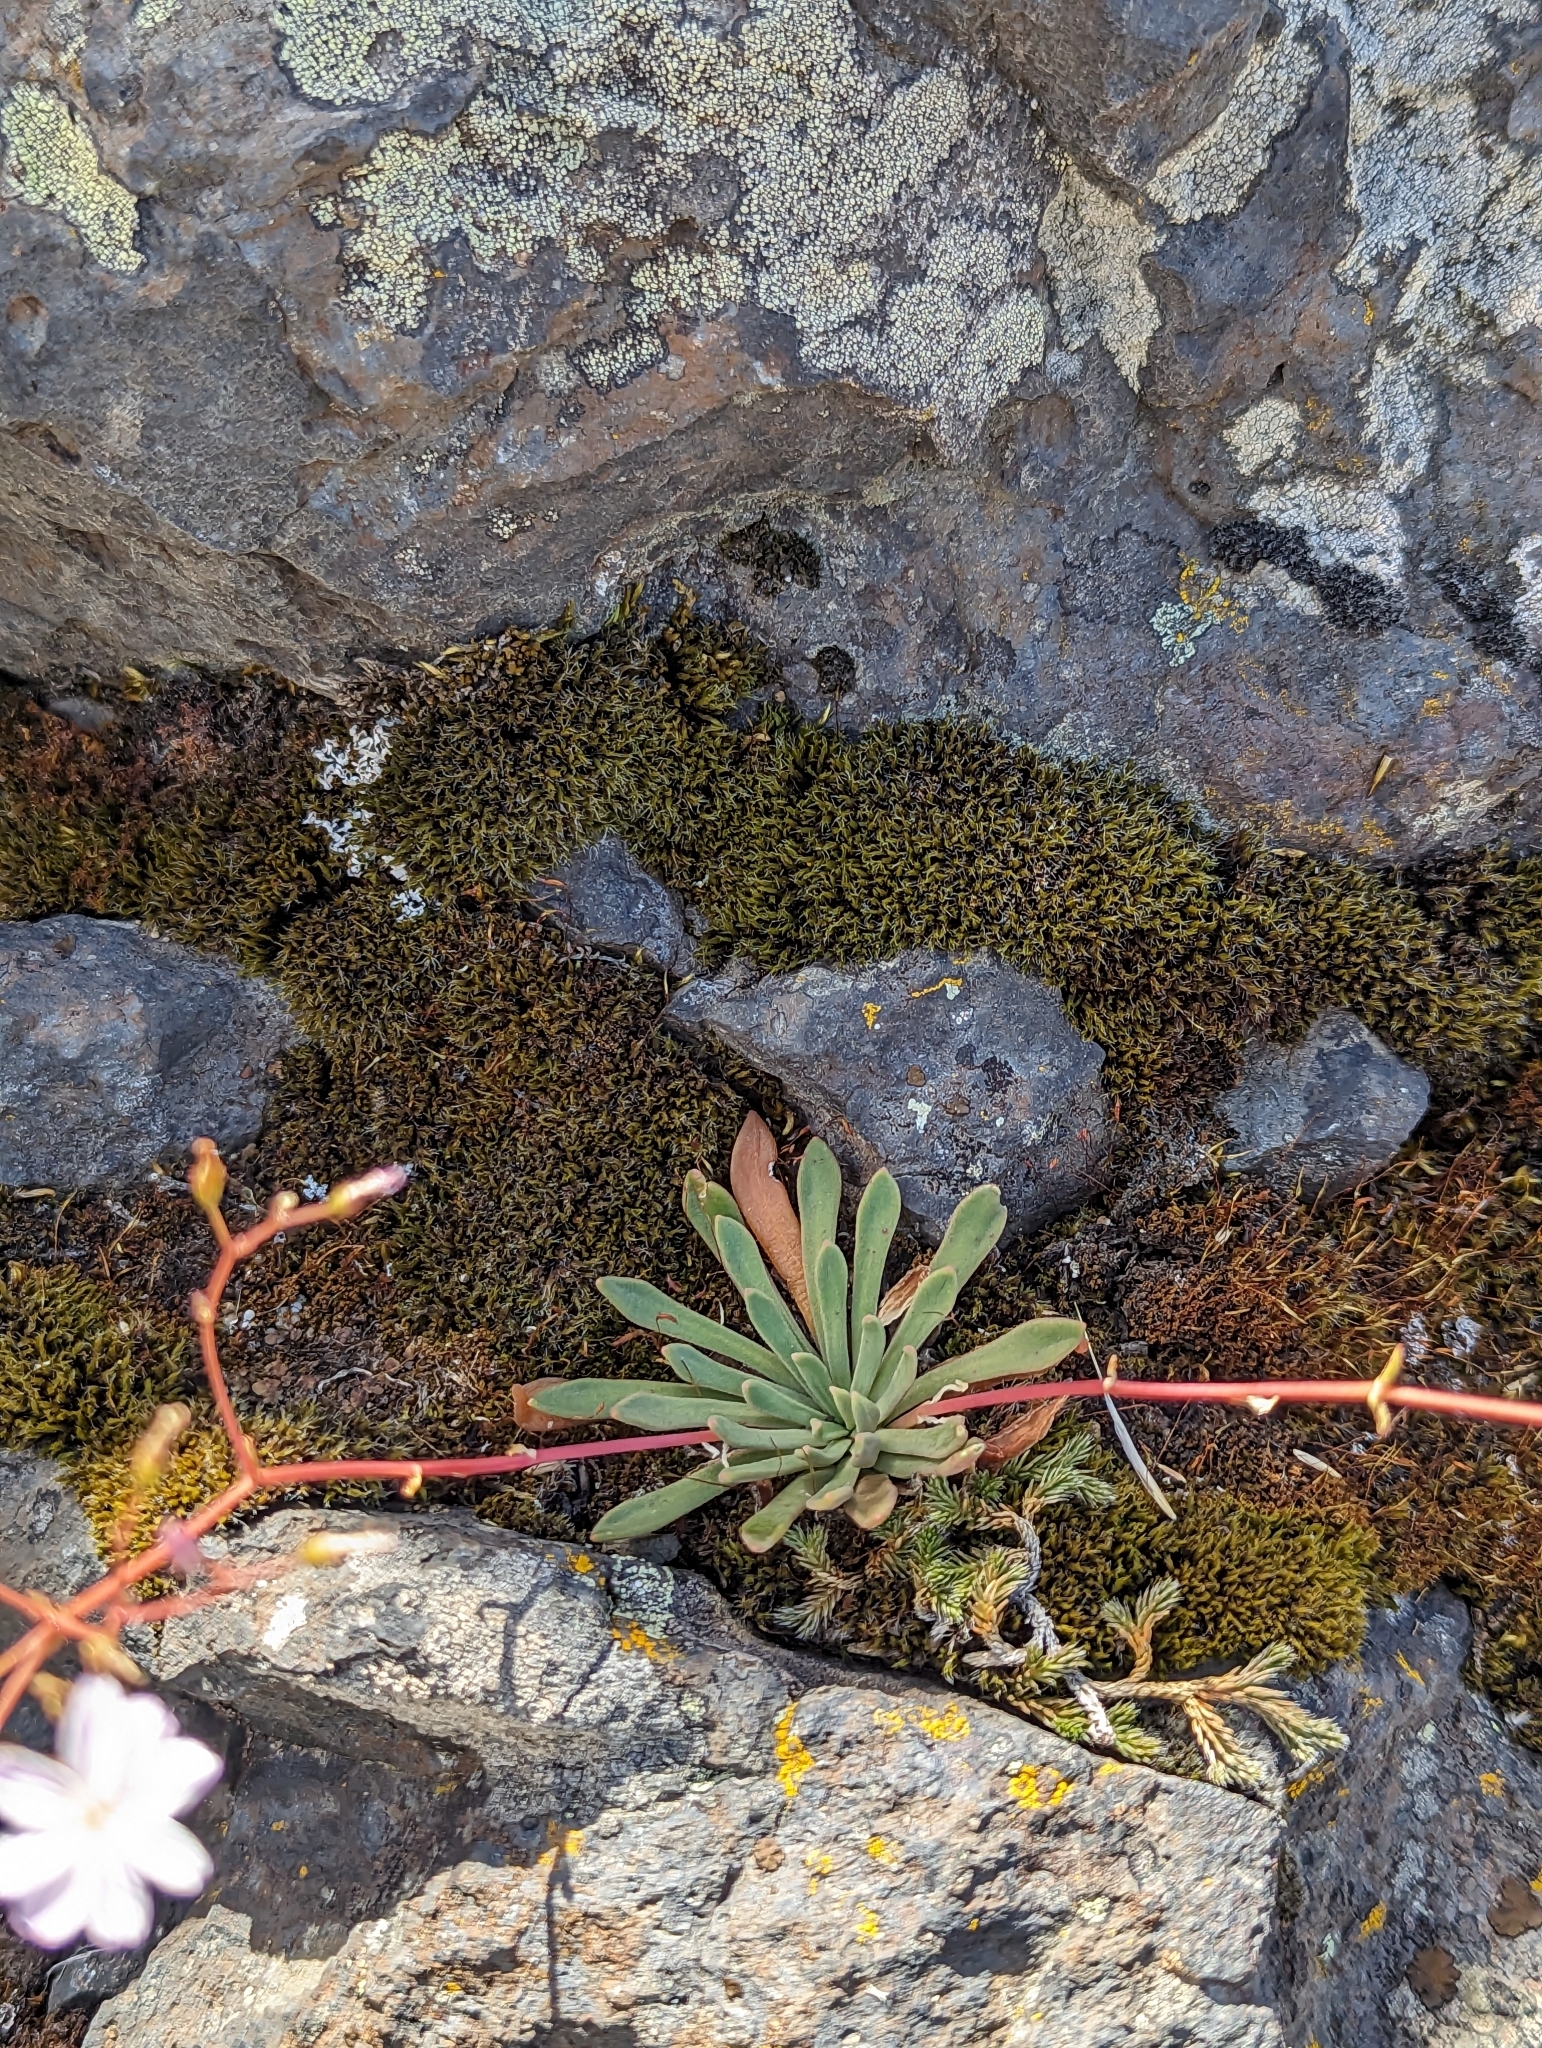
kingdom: Plantae
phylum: Tracheophyta
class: Magnoliopsida
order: Caryophyllales
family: Montiaceae
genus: Lewisia
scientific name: Lewisia columbiana
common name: Columbia lewisia
